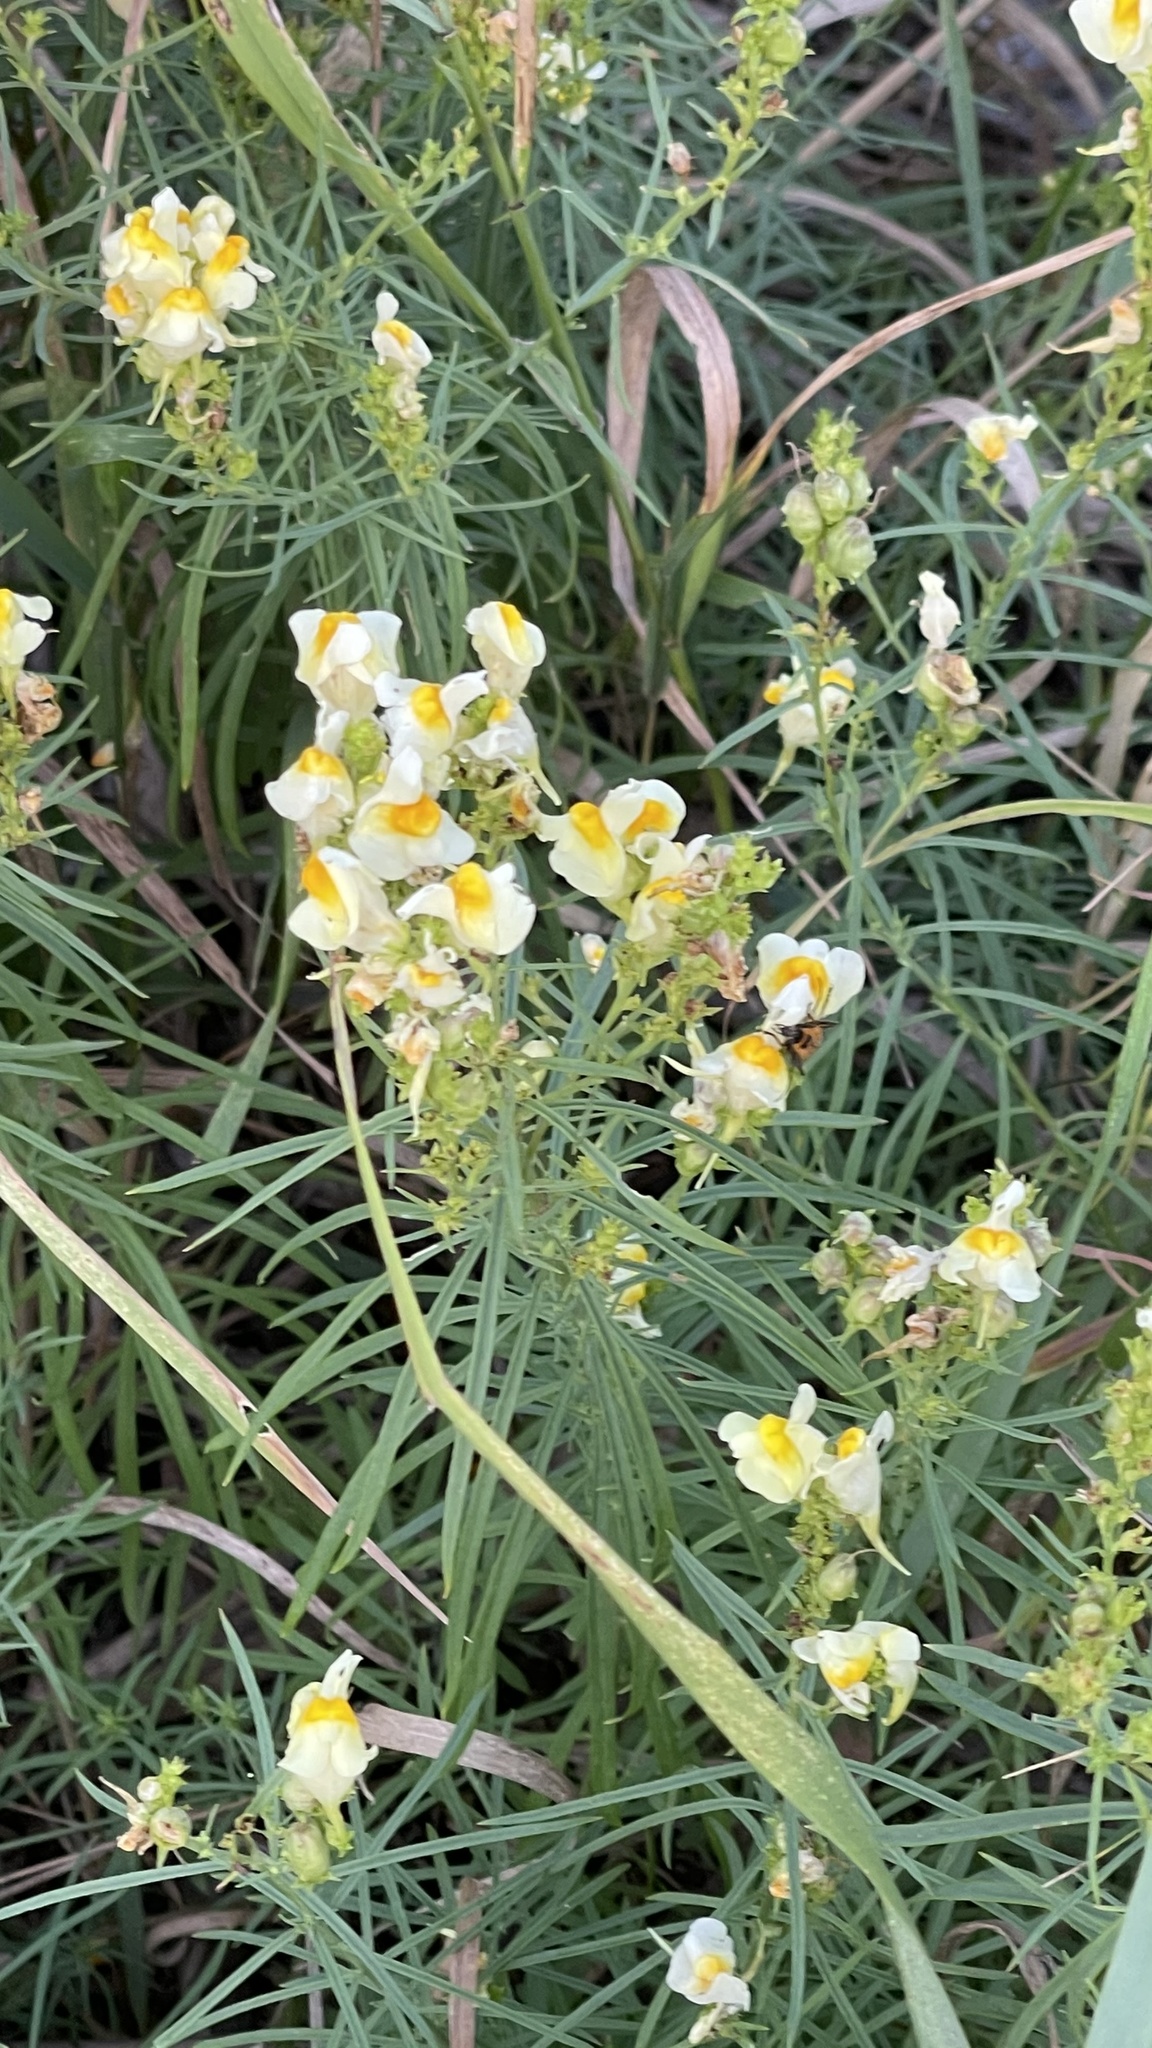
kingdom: Plantae
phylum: Tracheophyta
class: Magnoliopsida
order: Lamiales
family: Plantaginaceae
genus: Linaria
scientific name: Linaria vulgaris
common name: Butter and eggs
